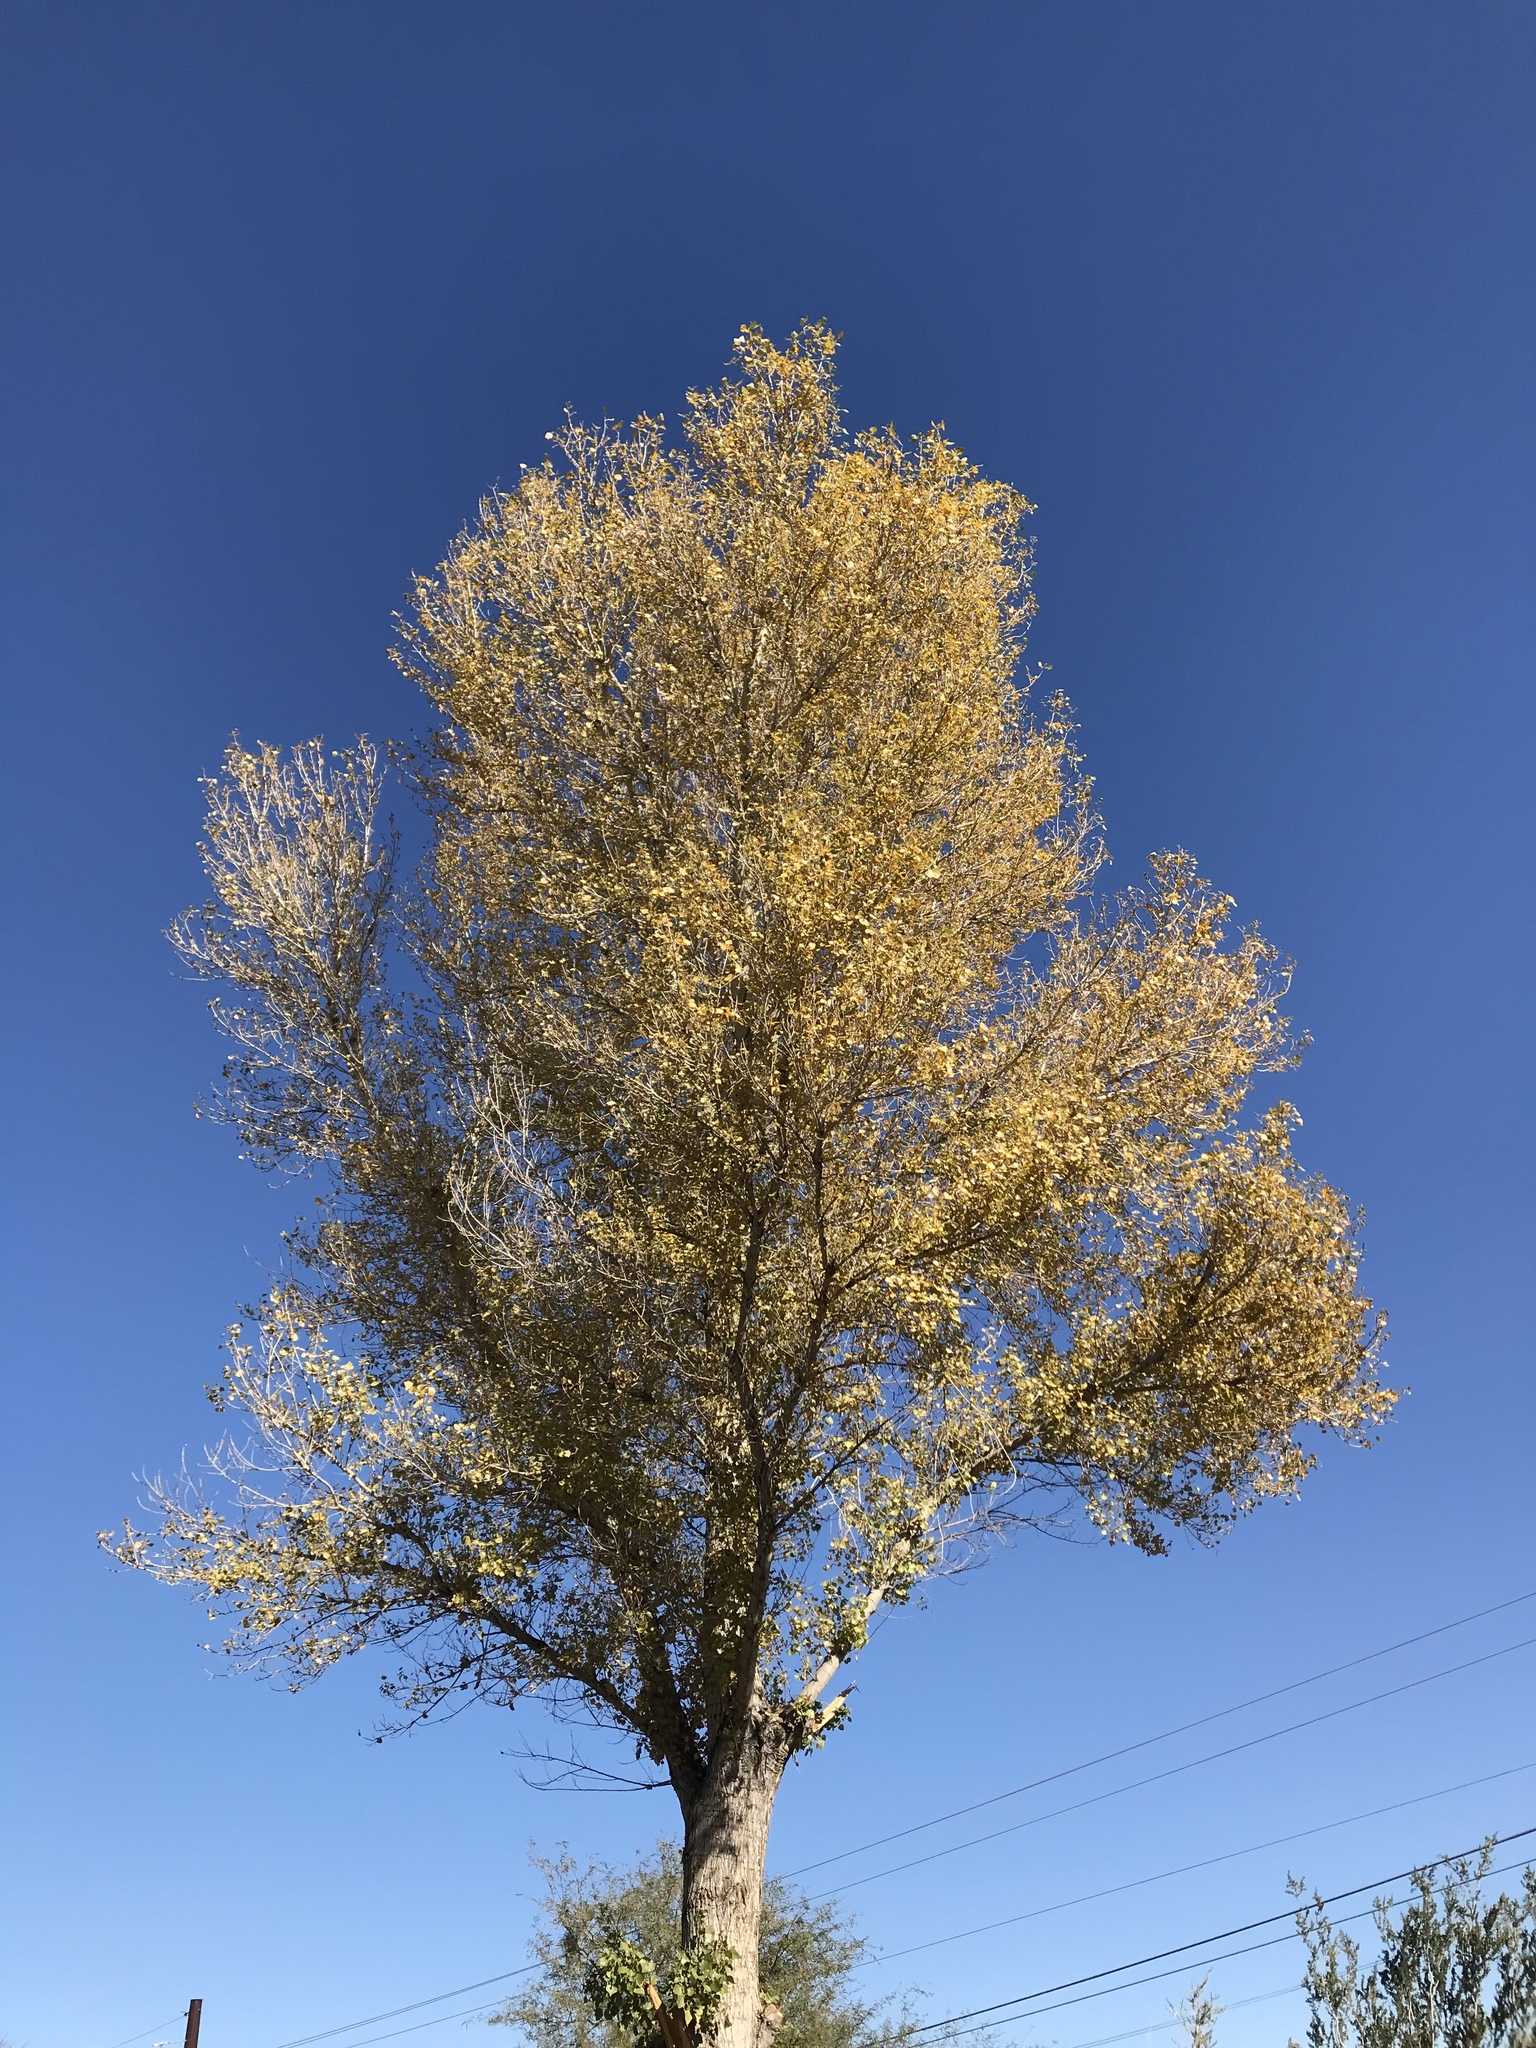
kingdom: Plantae
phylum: Tracheophyta
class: Magnoliopsida
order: Malpighiales
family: Salicaceae
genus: Populus
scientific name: Populus fremontii
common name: Fremont's cottonwood
